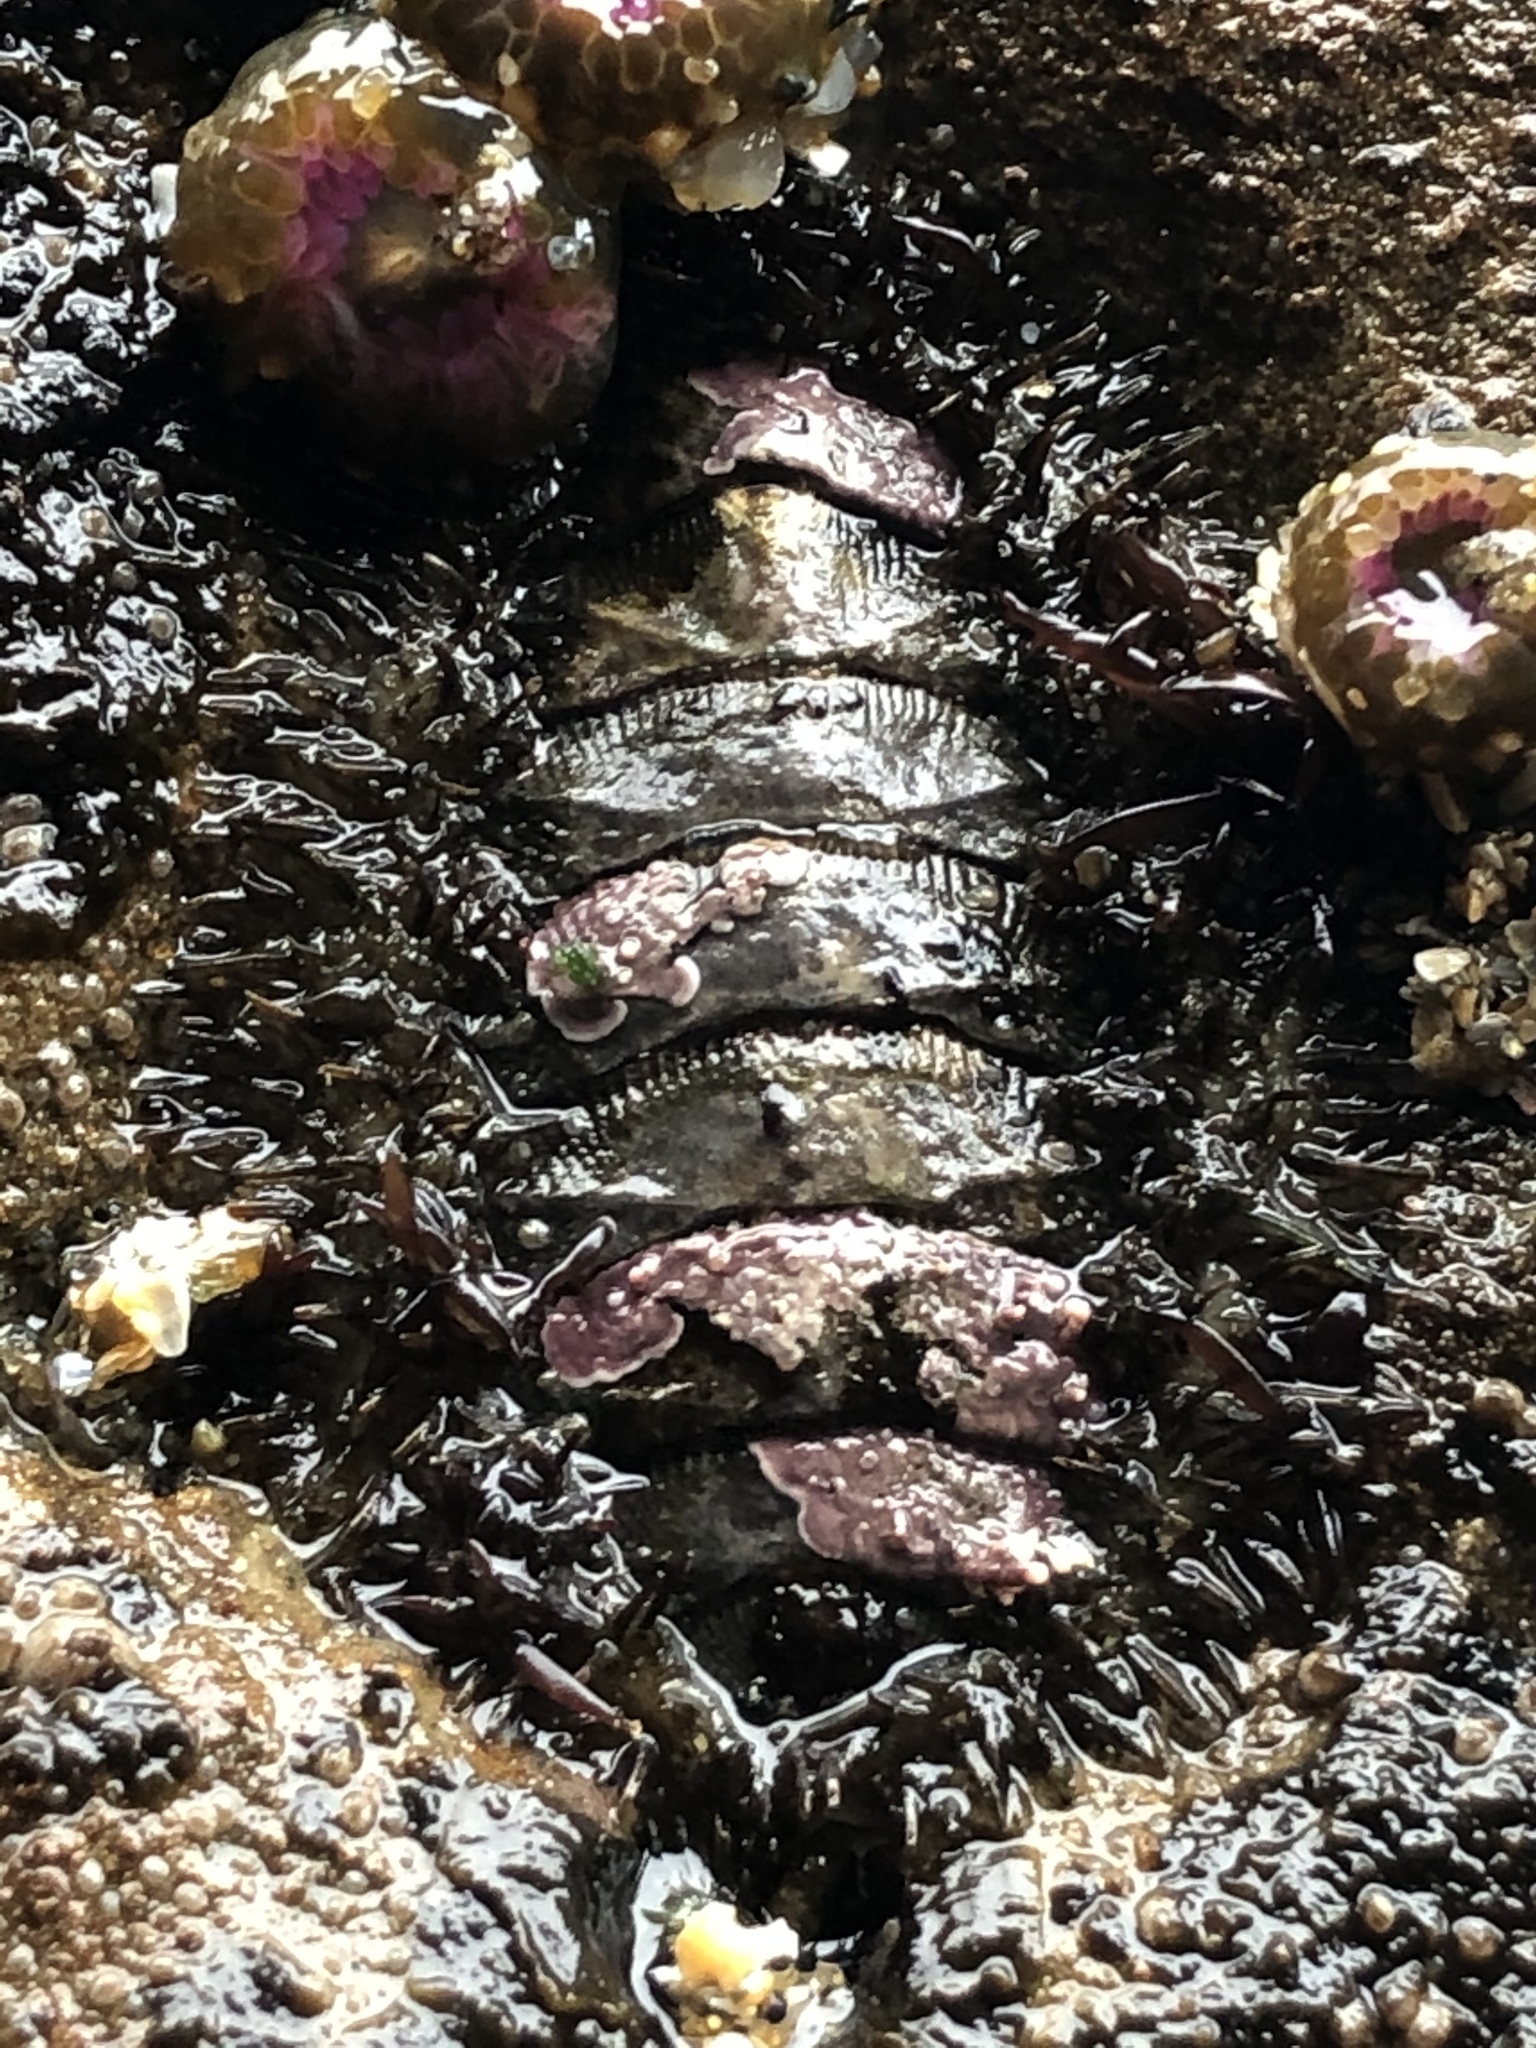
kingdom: Animalia
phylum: Mollusca
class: Polyplacophora
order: Chitonida
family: Mopaliidae
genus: Mopalia
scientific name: Mopalia muscosa
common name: Mossy chiton
